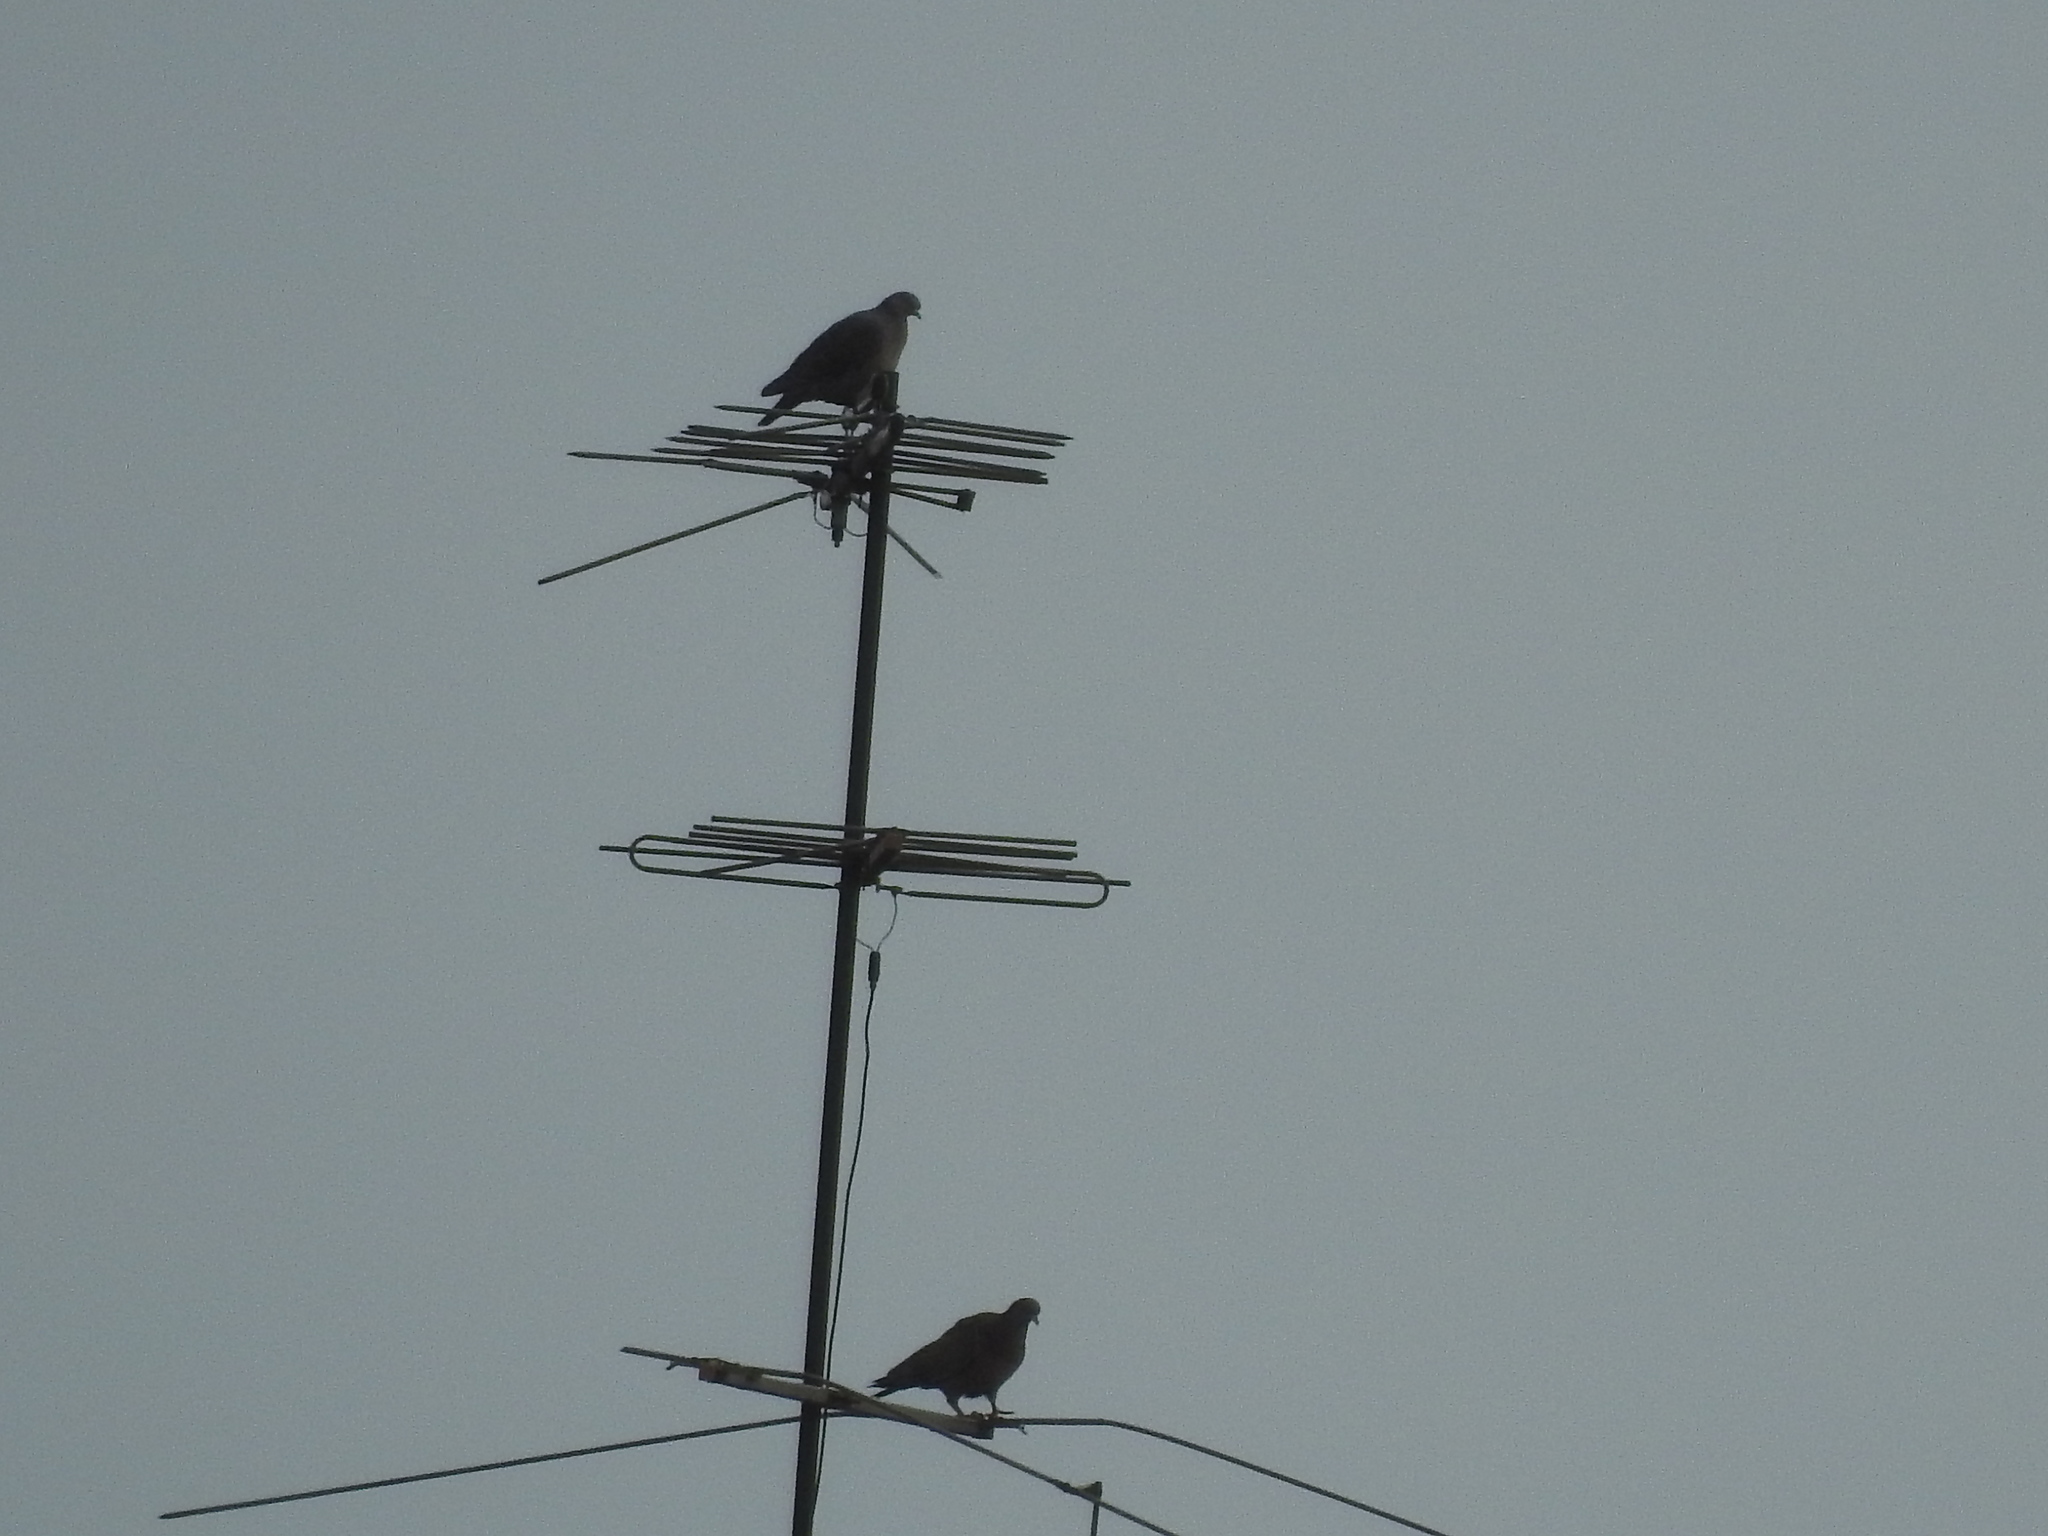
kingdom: Animalia
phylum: Chordata
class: Aves
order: Columbiformes
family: Columbidae
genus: Patagioenas
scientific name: Patagioenas picazuro
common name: Picazuro pigeon
